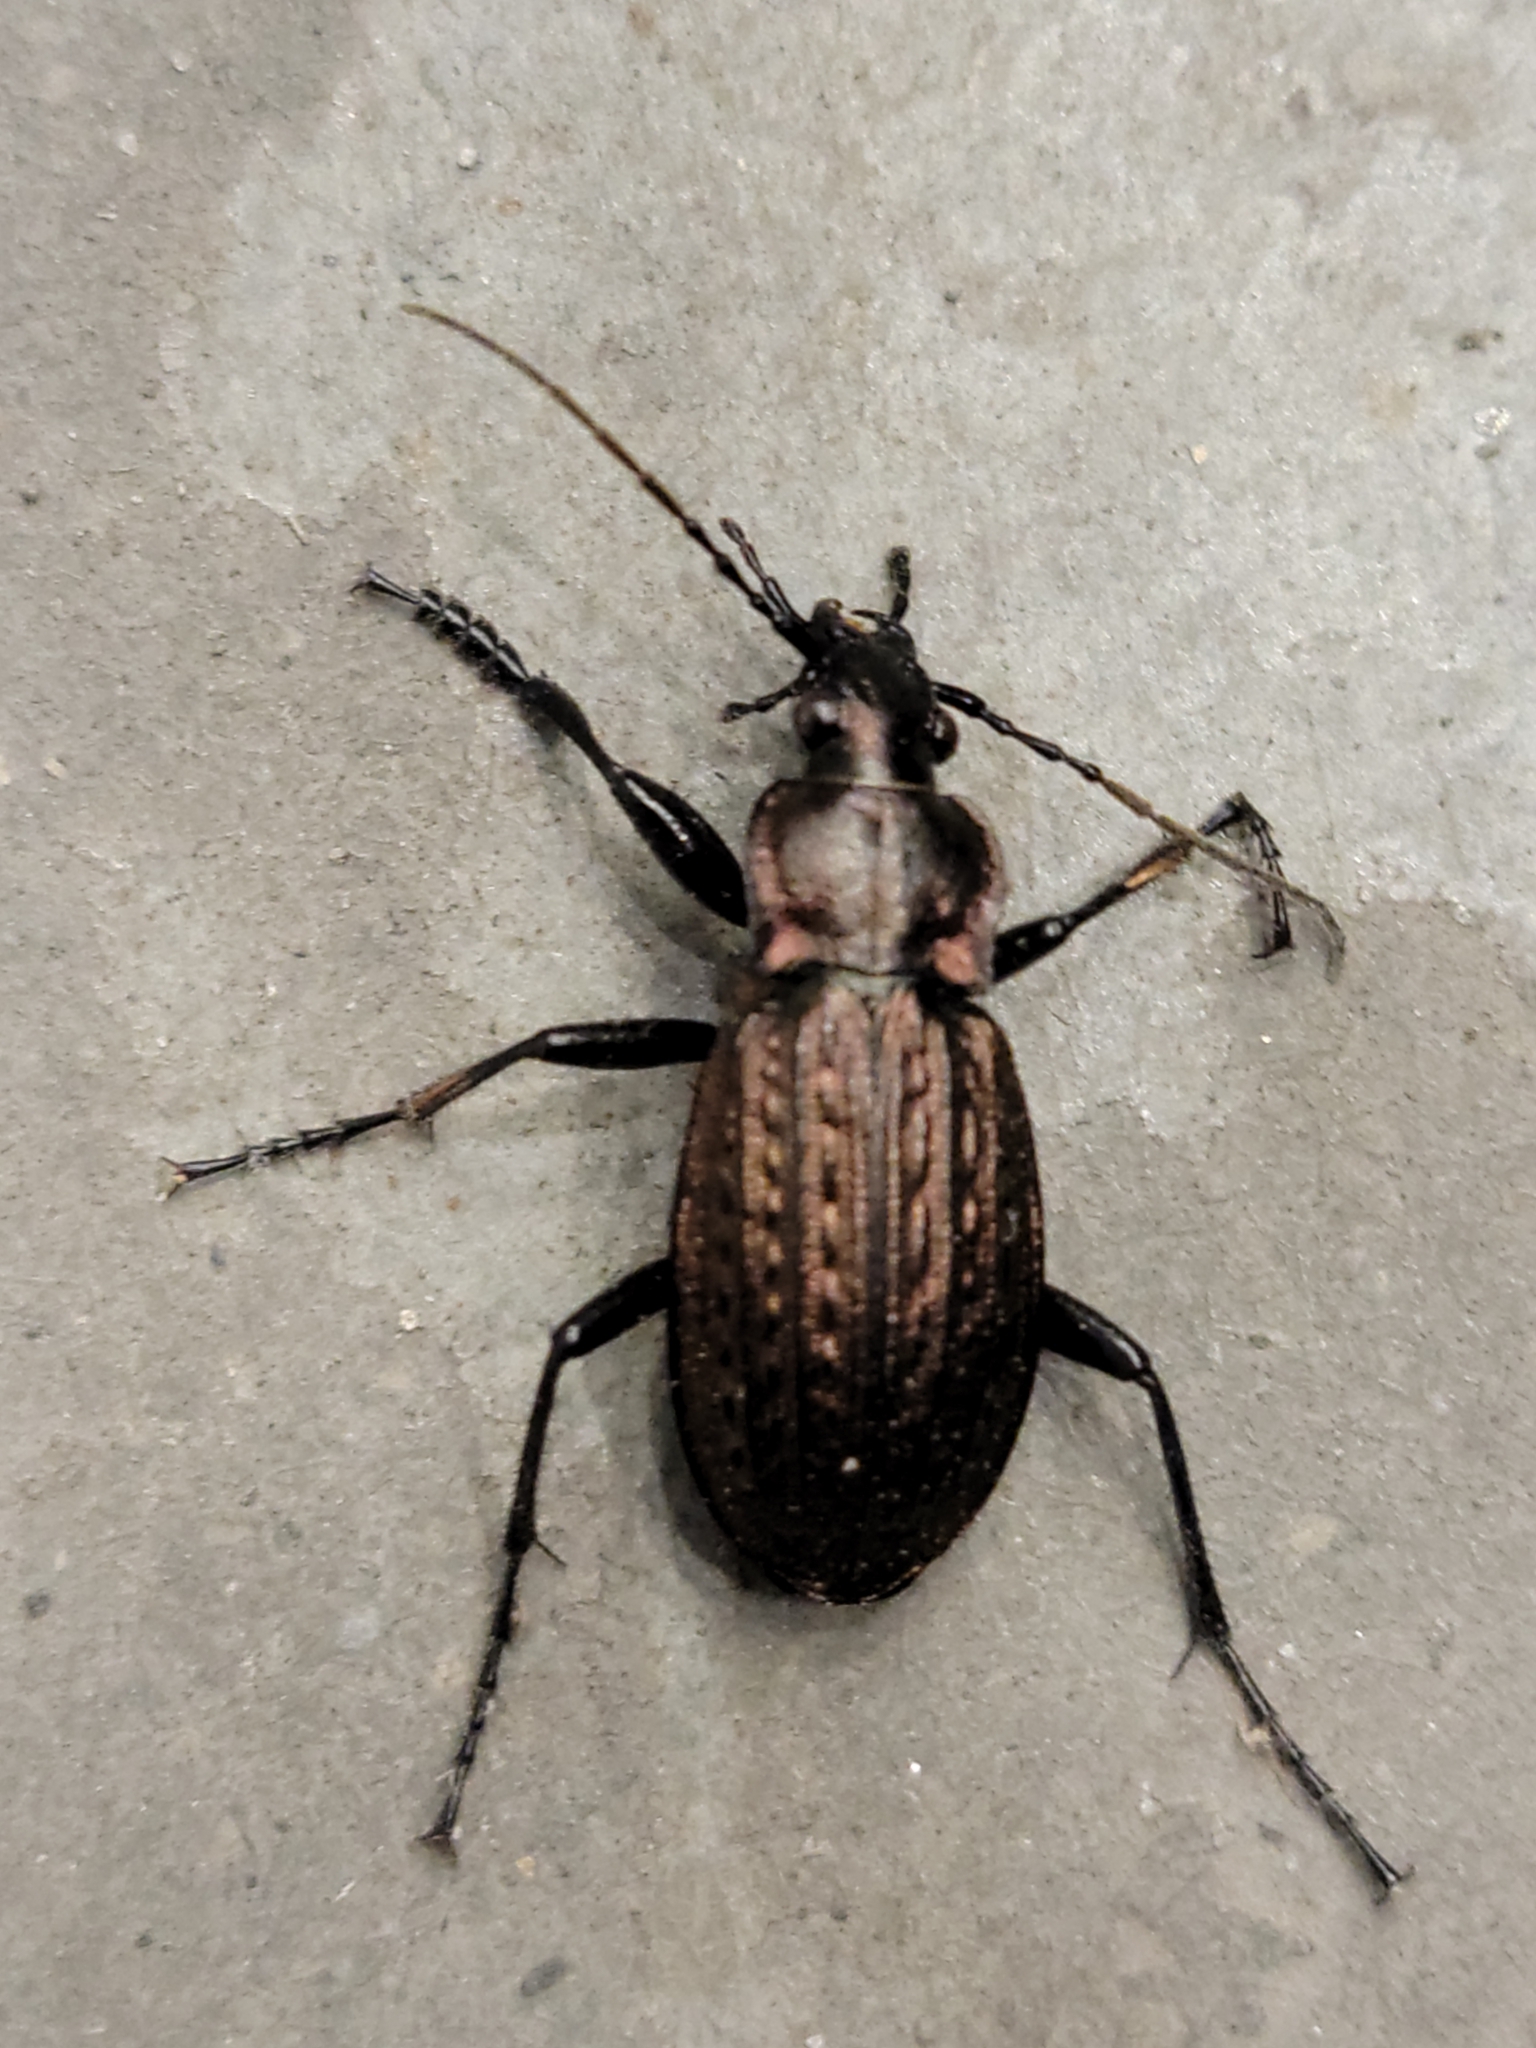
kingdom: Animalia
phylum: Arthropoda
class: Insecta
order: Coleoptera
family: Carabidae
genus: Carabus
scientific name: Carabus granulatus
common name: Granulate ground beetle
